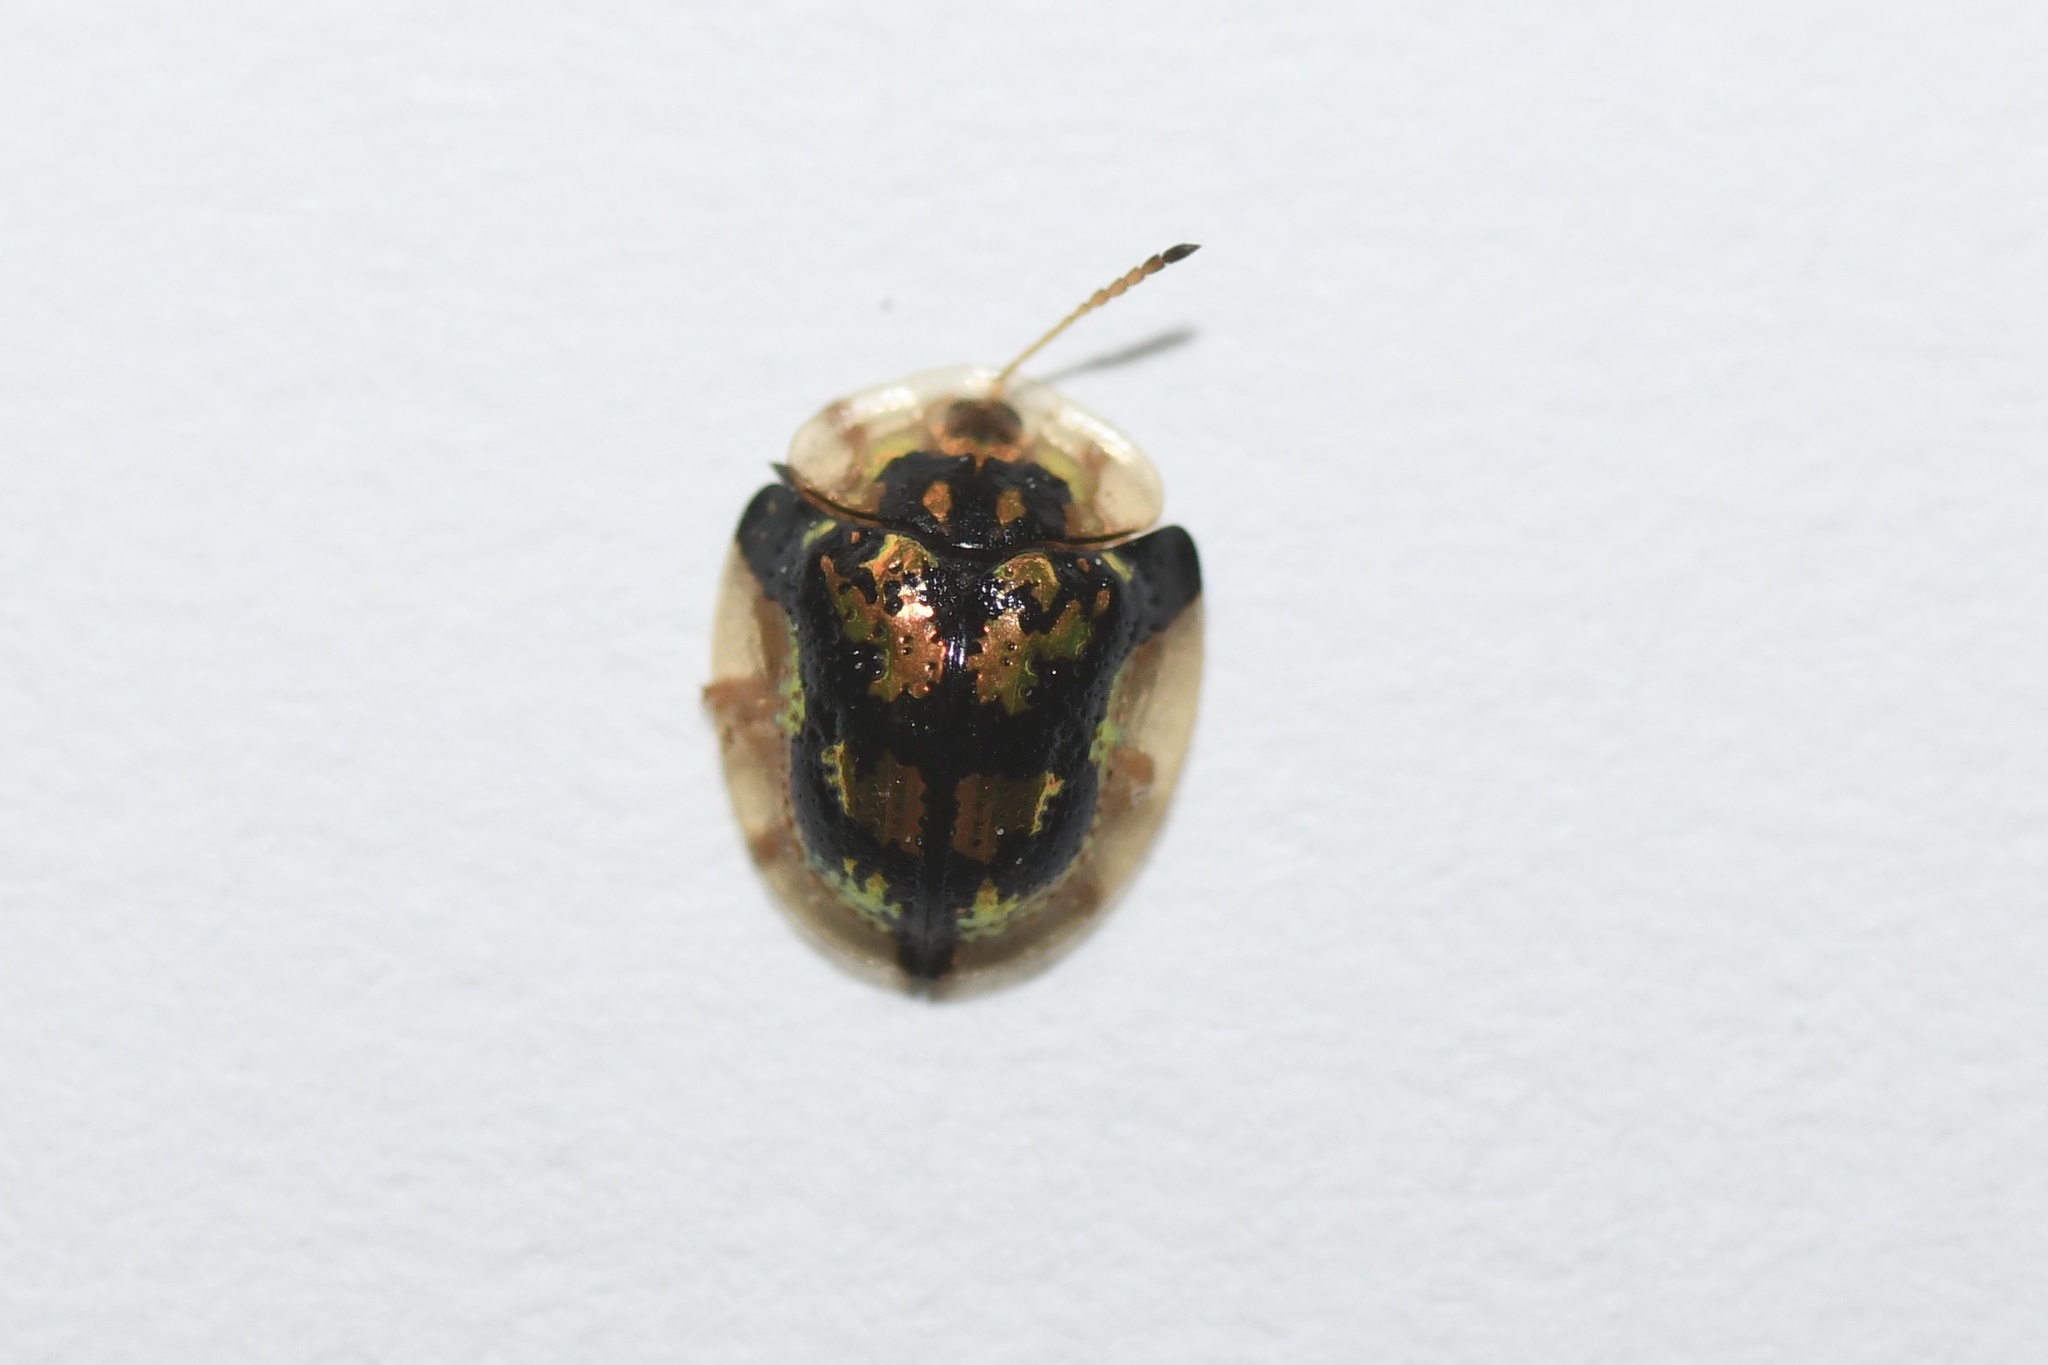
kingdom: Animalia
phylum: Arthropoda
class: Insecta
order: Coleoptera
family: Chrysomelidae
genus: Deloyala
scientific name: Deloyala guttata
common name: Mottled tortoise beetle
